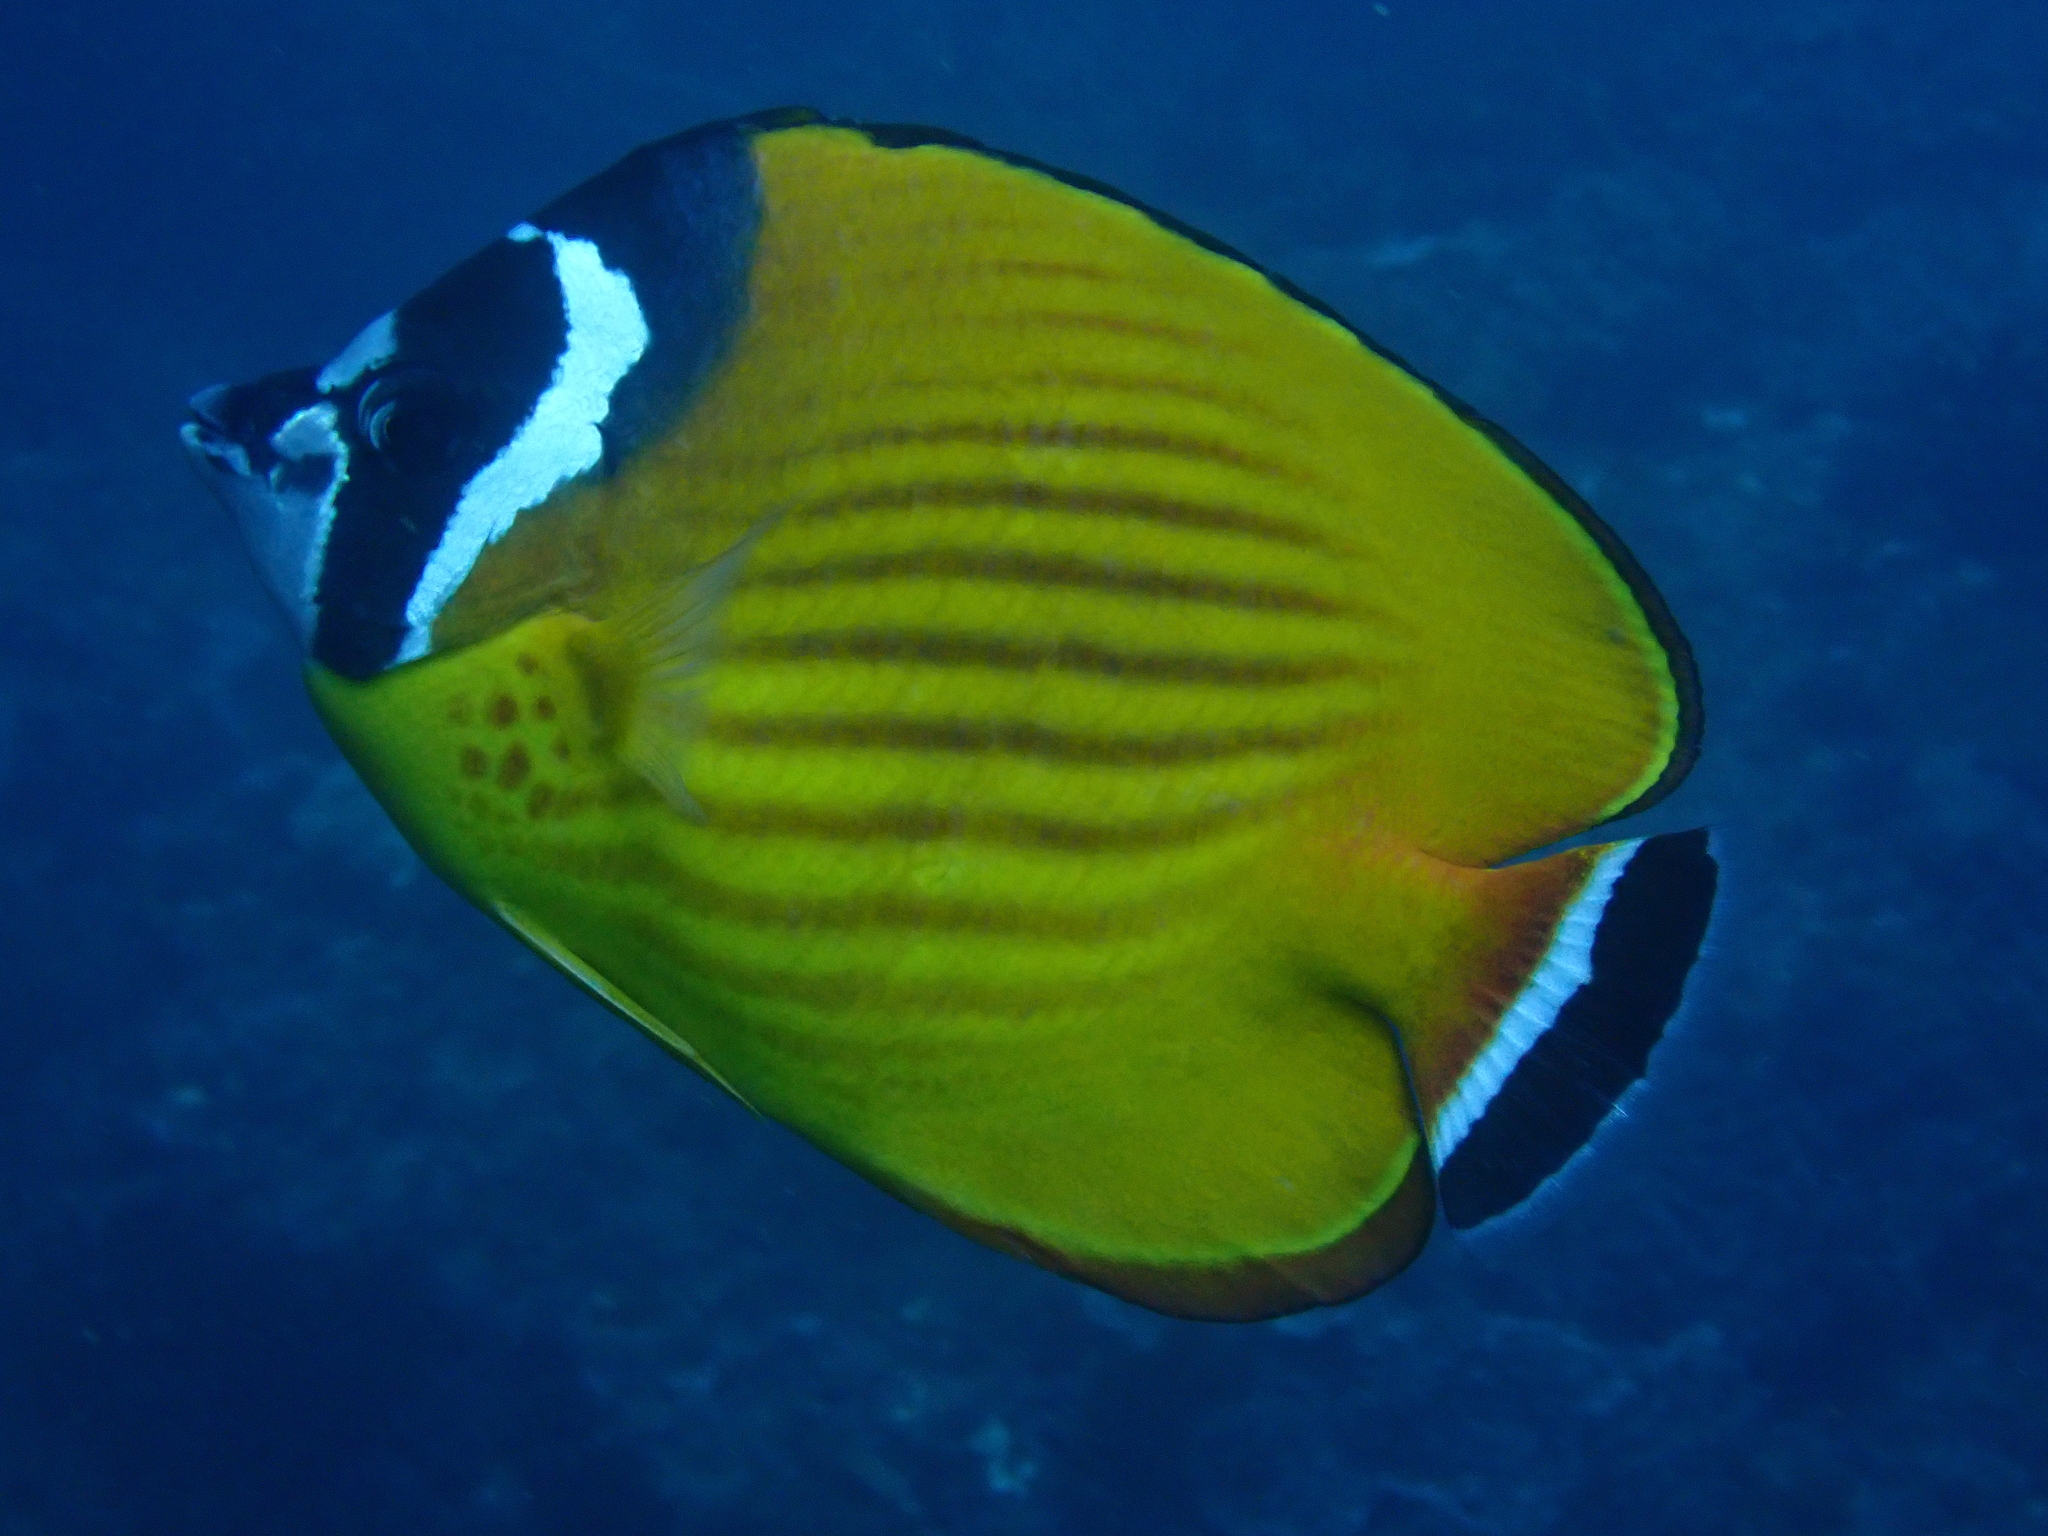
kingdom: Animalia
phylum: Chordata
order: Perciformes
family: Chaetodontidae
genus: Chaetodon
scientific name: Chaetodon wiebeli
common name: Butterflyfish
